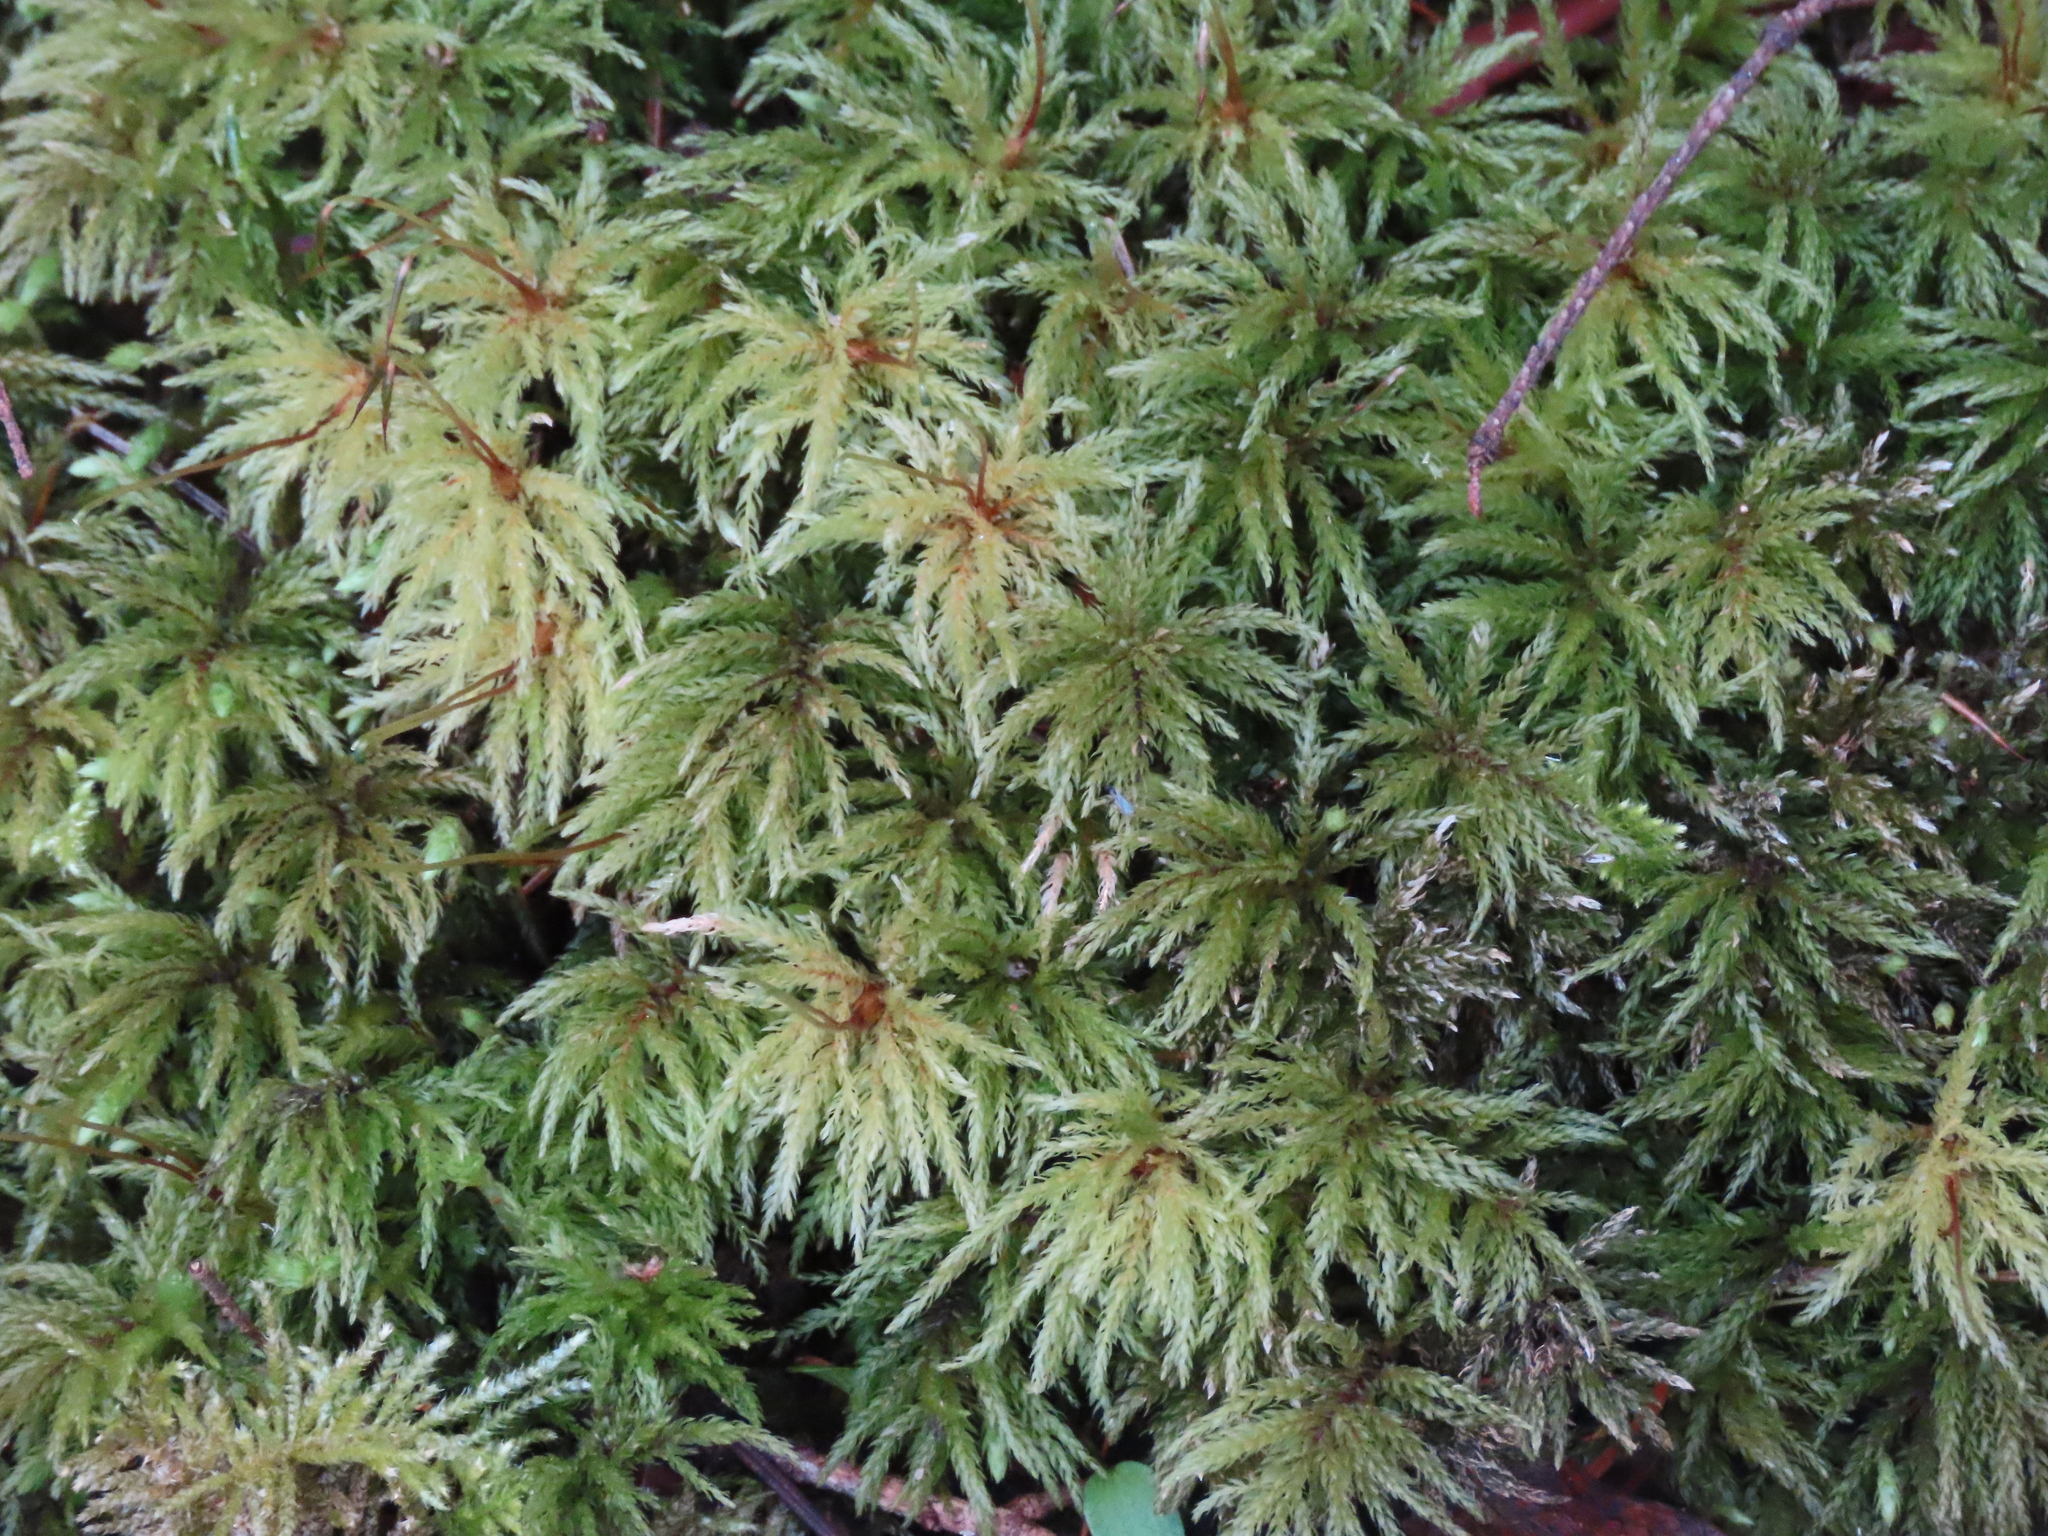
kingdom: Plantae
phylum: Bryophyta
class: Bryopsida
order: Bryales
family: Mniaceae
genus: Leucolepis
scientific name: Leucolepis acanthoneura
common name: Leucolepis umbrella moss
